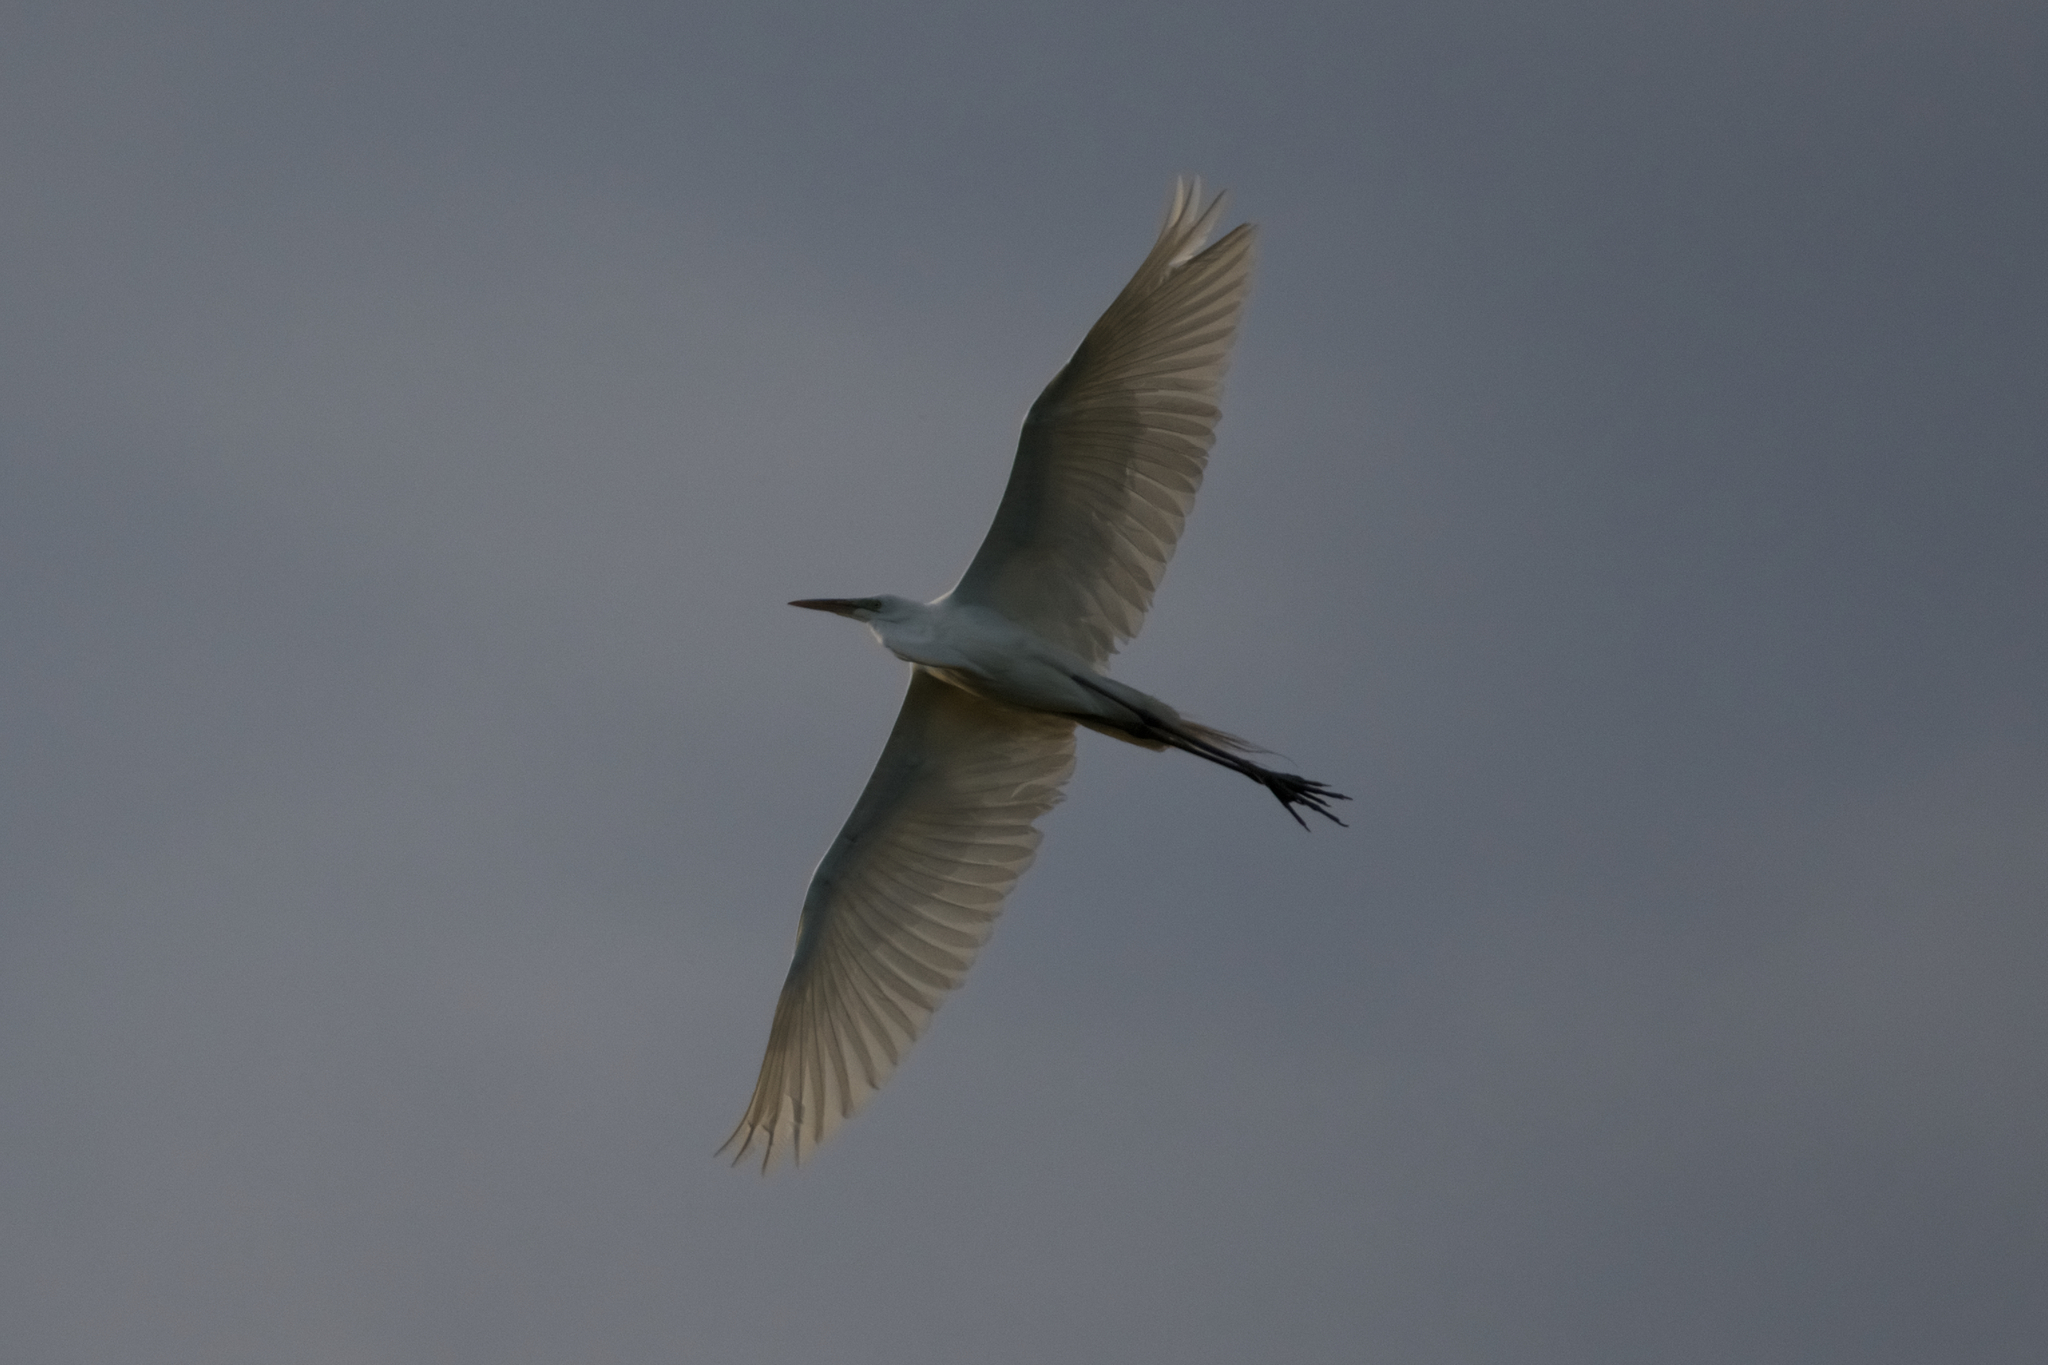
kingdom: Animalia
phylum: Chordata
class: Aves
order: Pelecaniformes
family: Ardeidae
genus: Ardea
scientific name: Ardea alba
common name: Great egret
